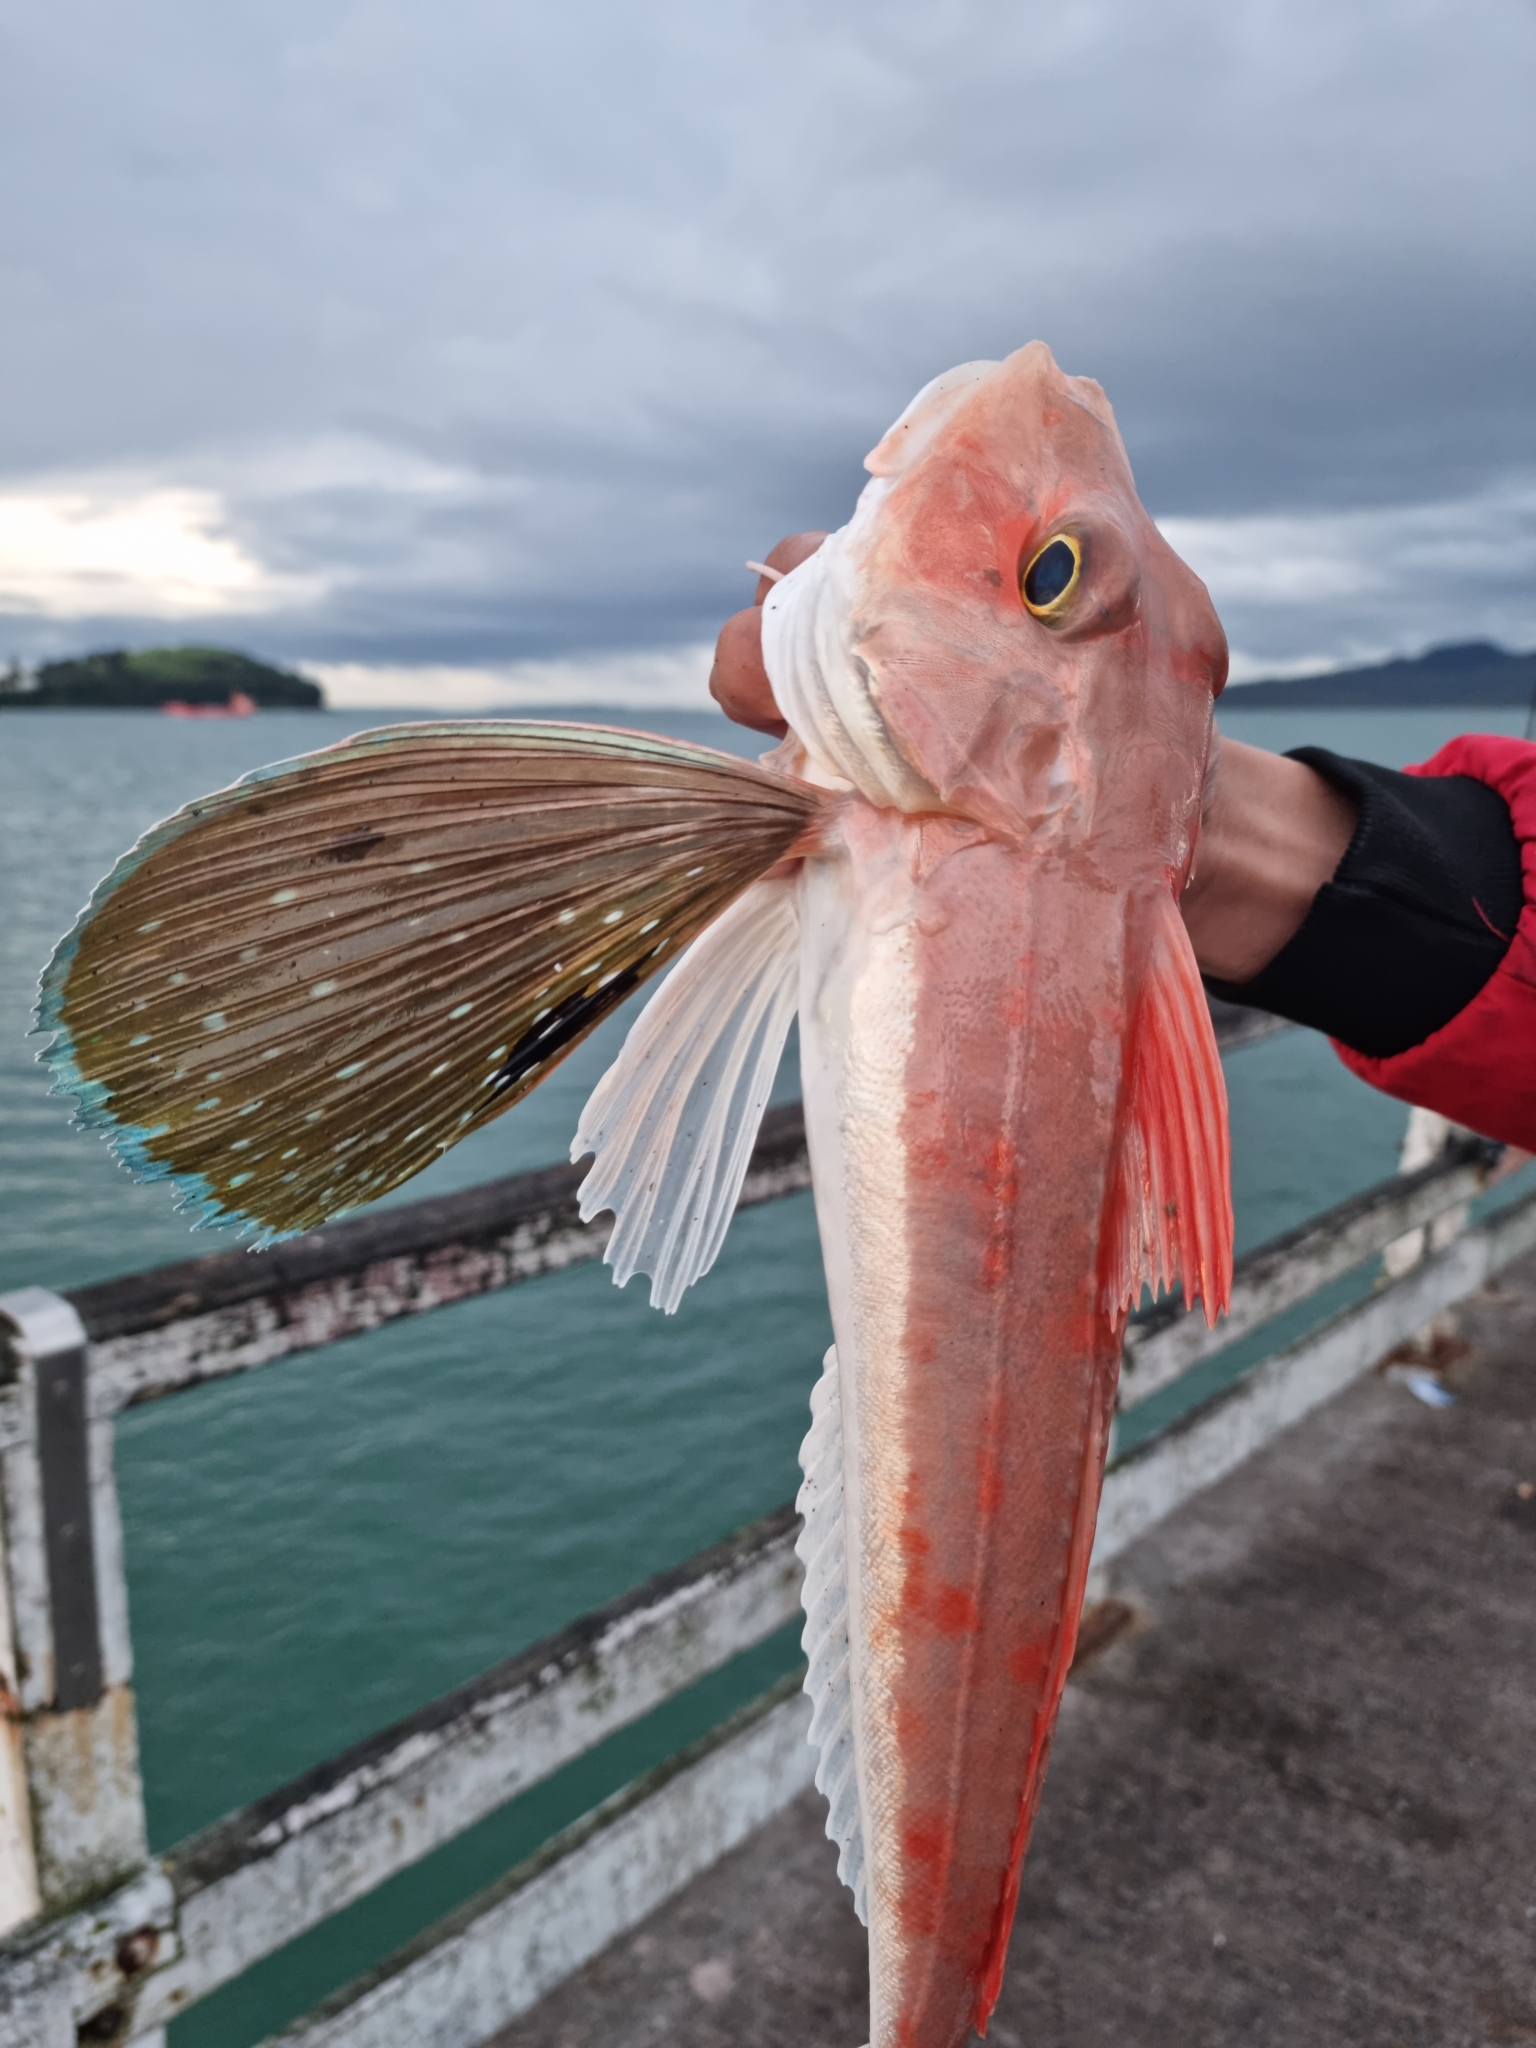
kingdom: Animalia
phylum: Chordata
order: Scorpaeniformes
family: Triglidae
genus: Chelidonichthys
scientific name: Chelidonichthys kumu
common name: Bluefin gurnard
